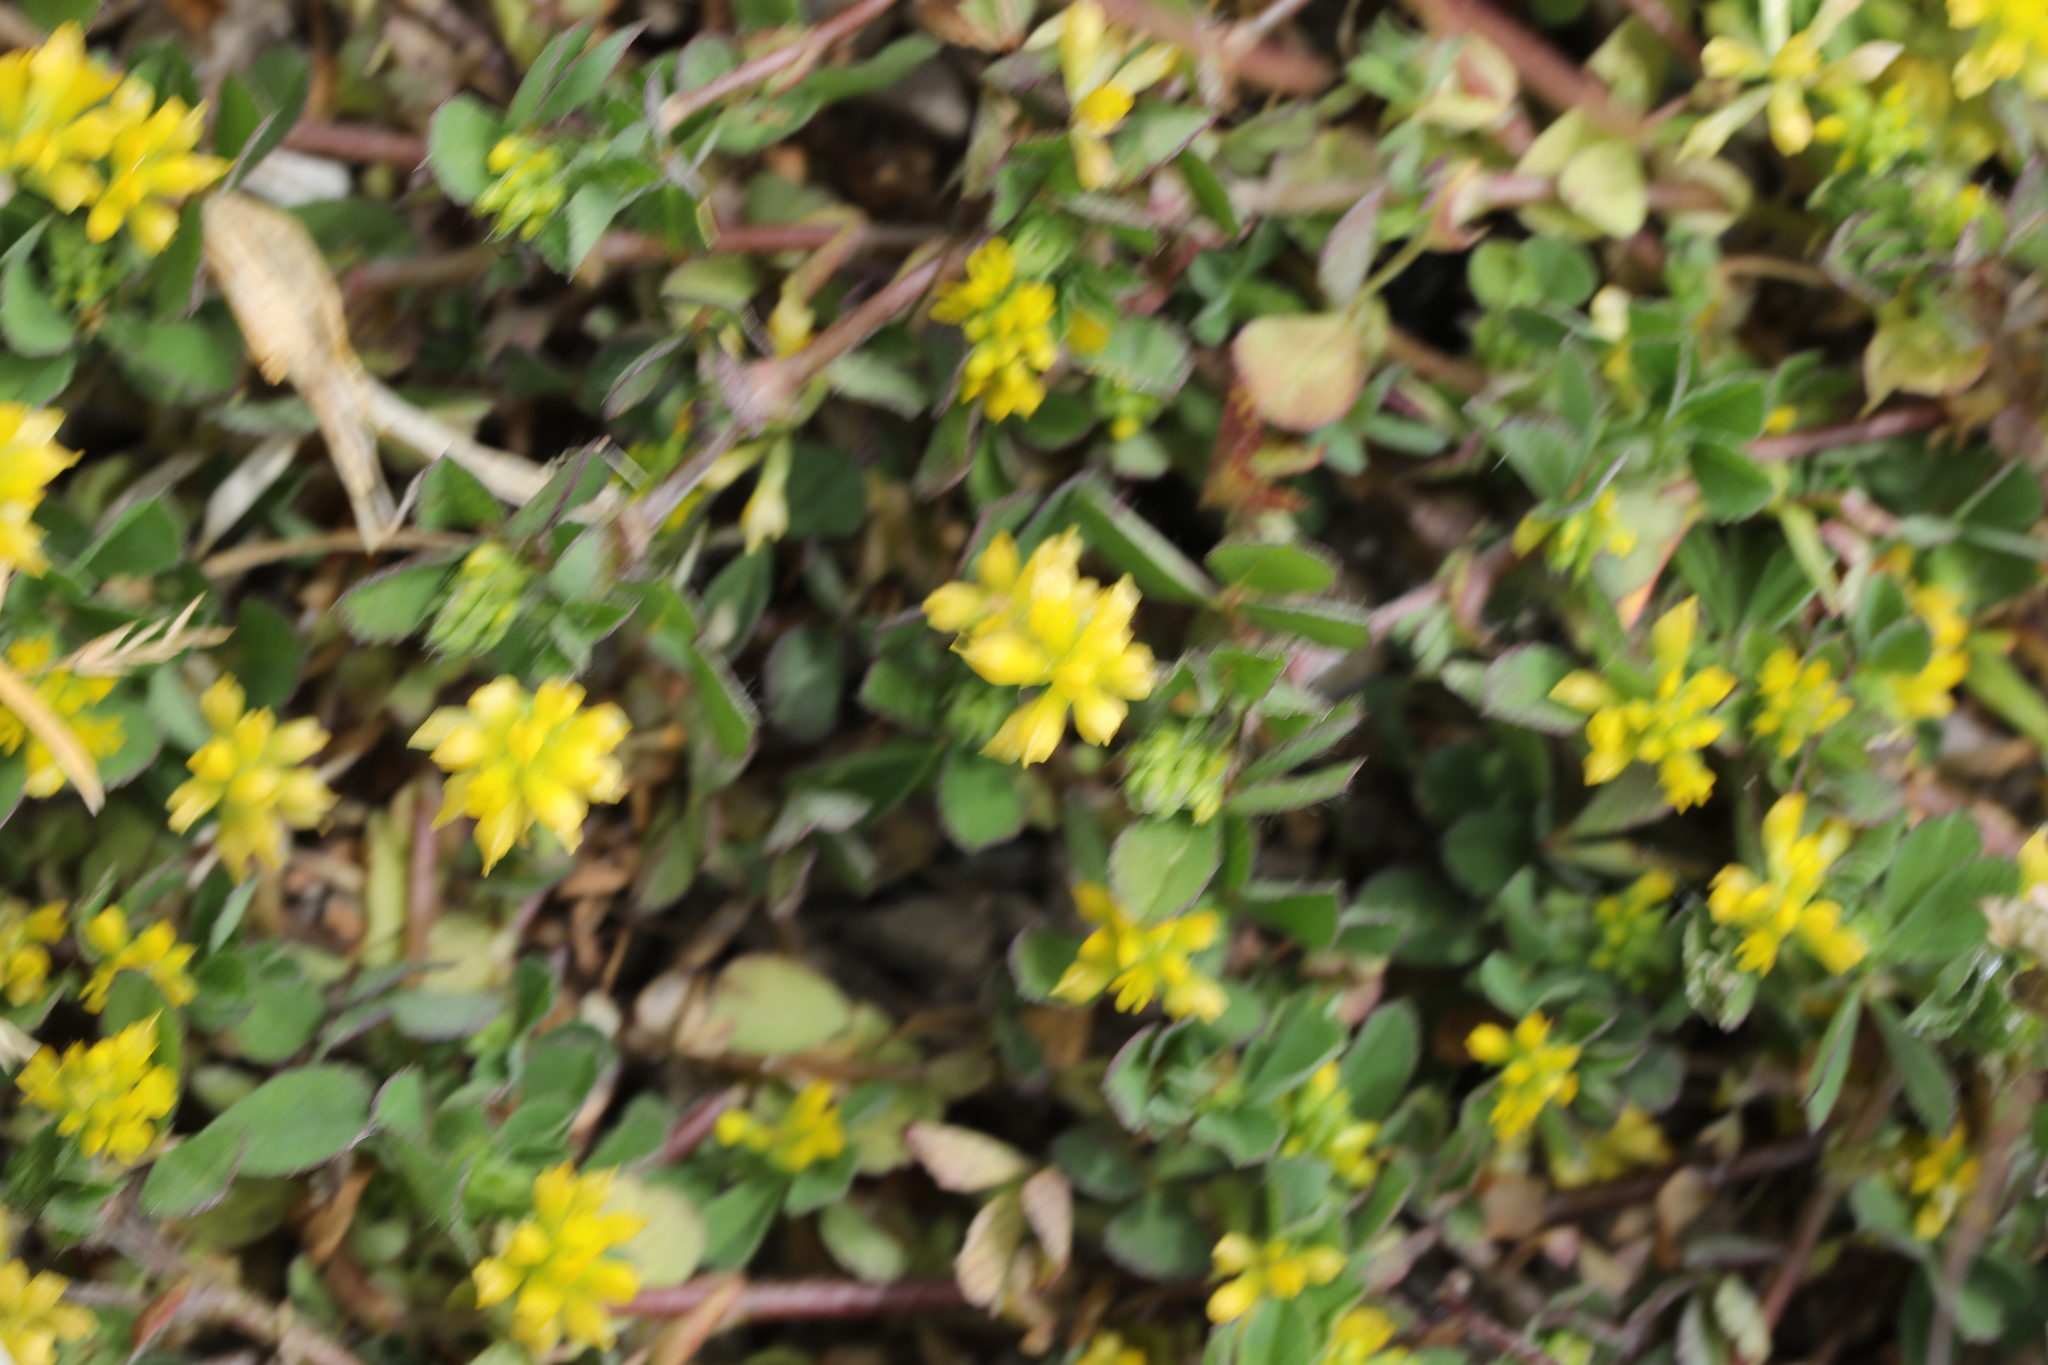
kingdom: Plantae
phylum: Tracheophyta
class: Magnoliopsida
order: Fabales
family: Fabaceae
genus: Trifolium
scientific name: Trifolium dubium
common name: Suckling clover
